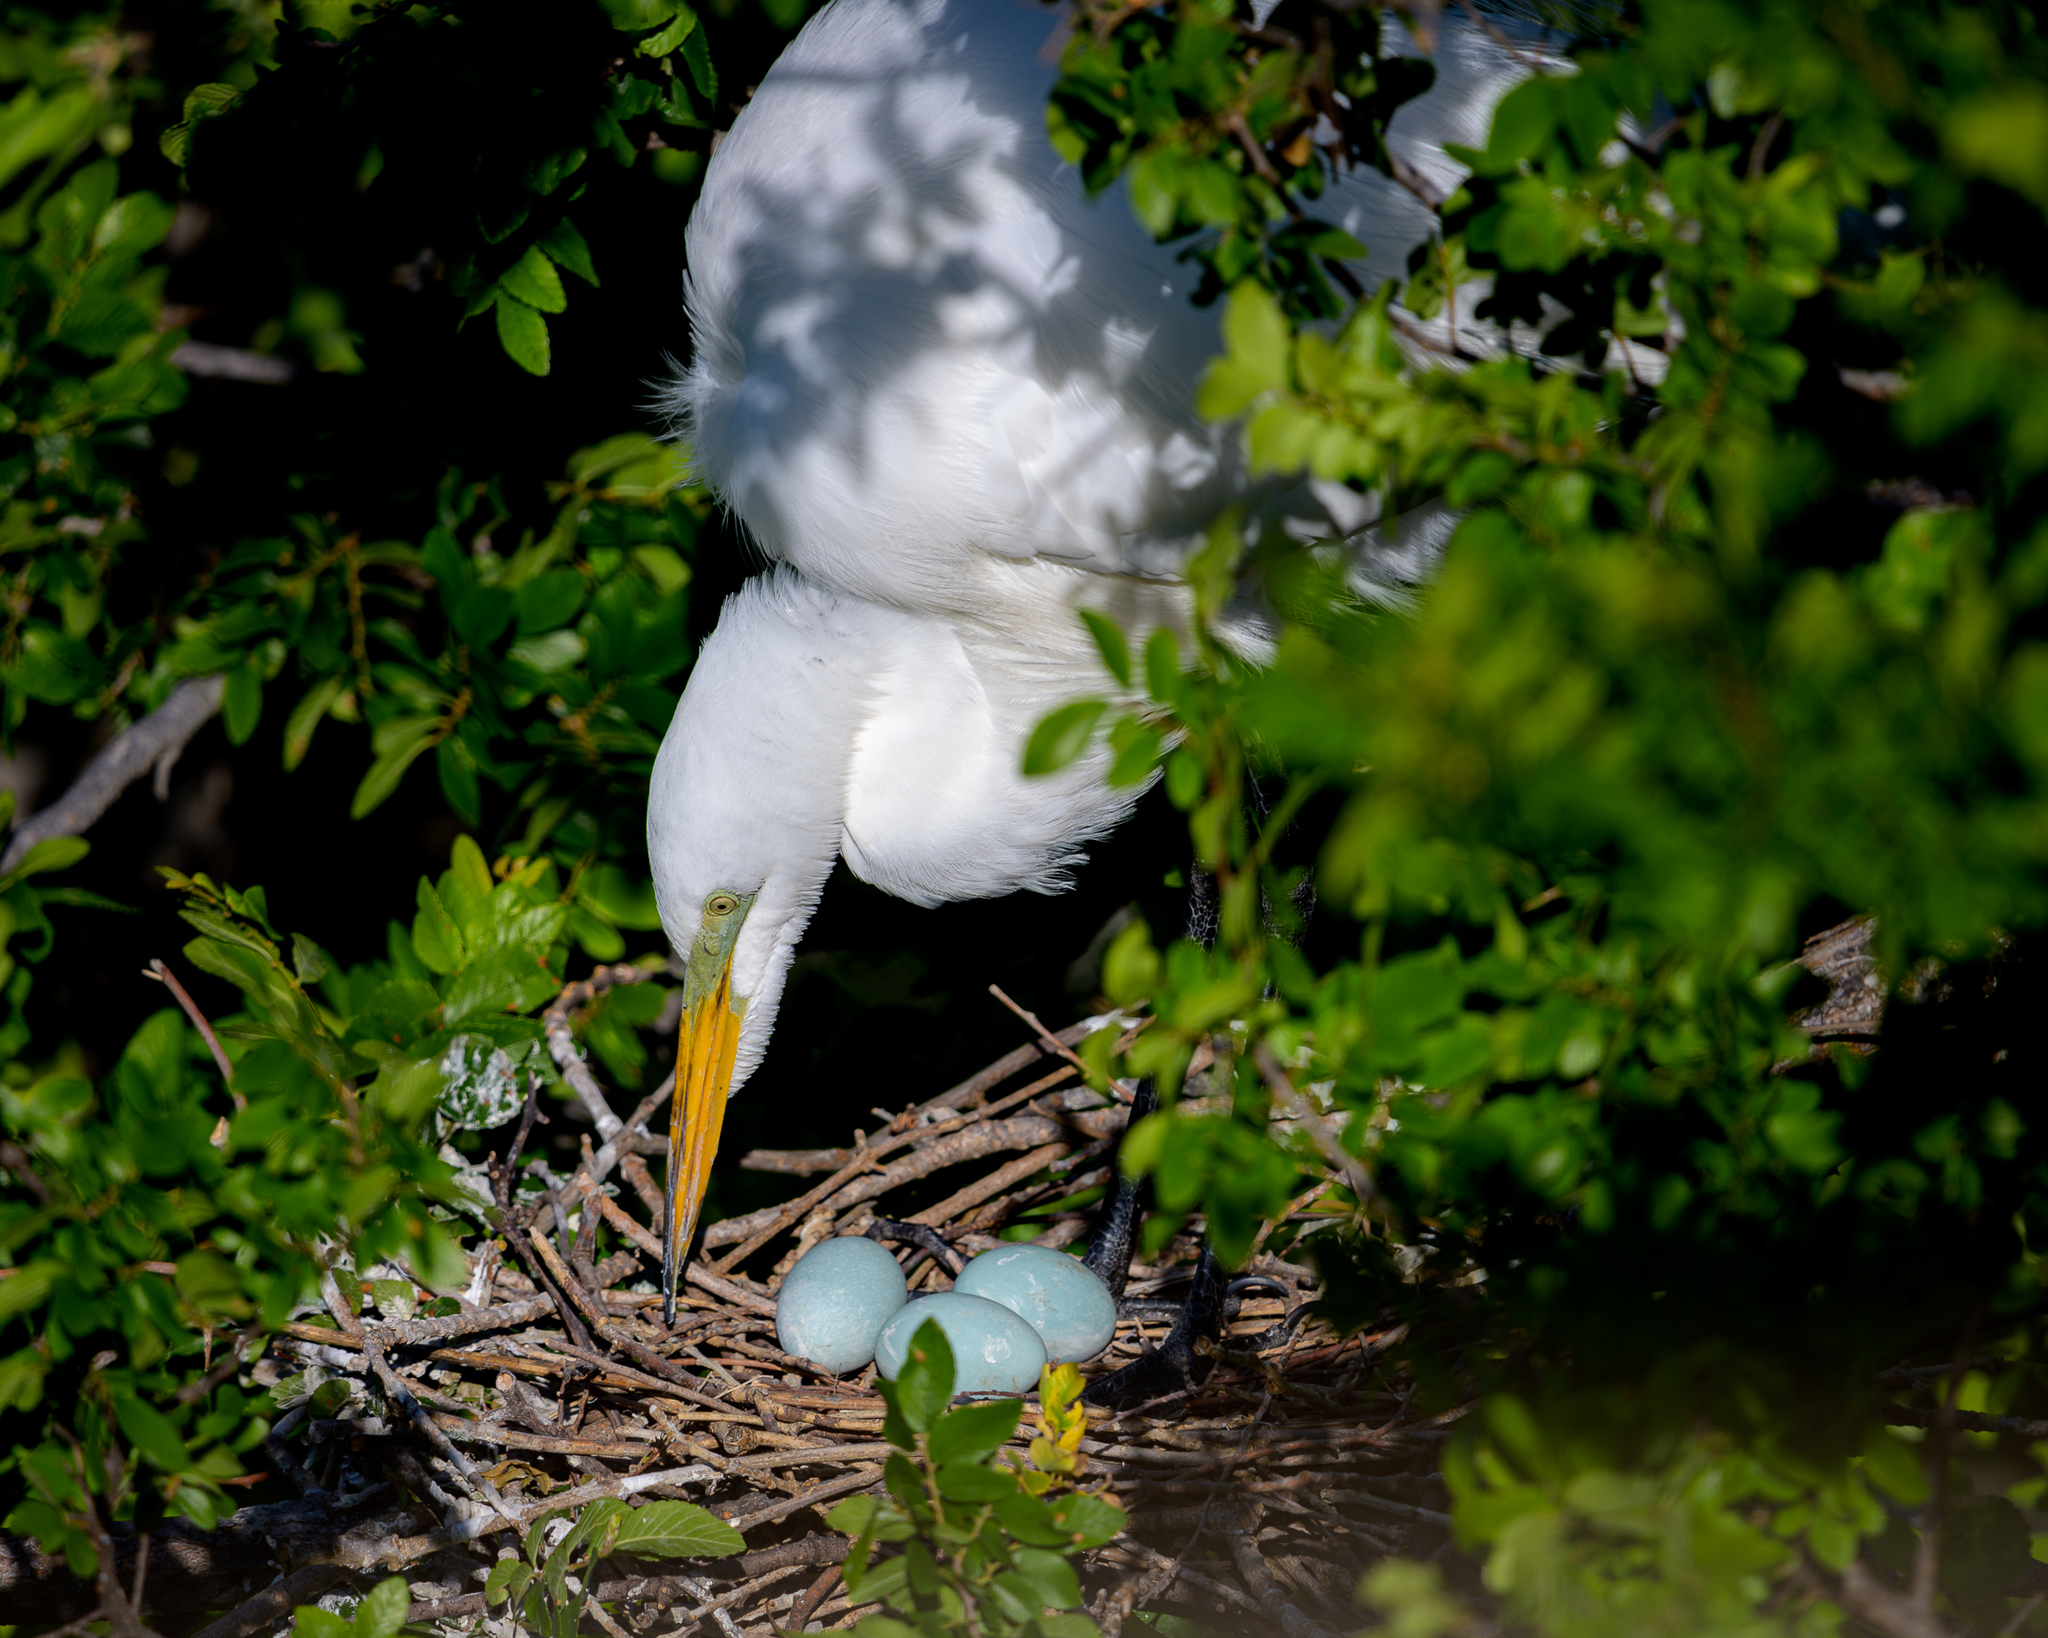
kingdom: Animalia
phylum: Chordata
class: Aves
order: Pelecaniformes
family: Ardeidae
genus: Ardea
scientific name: Ardea alba
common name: Great egret
